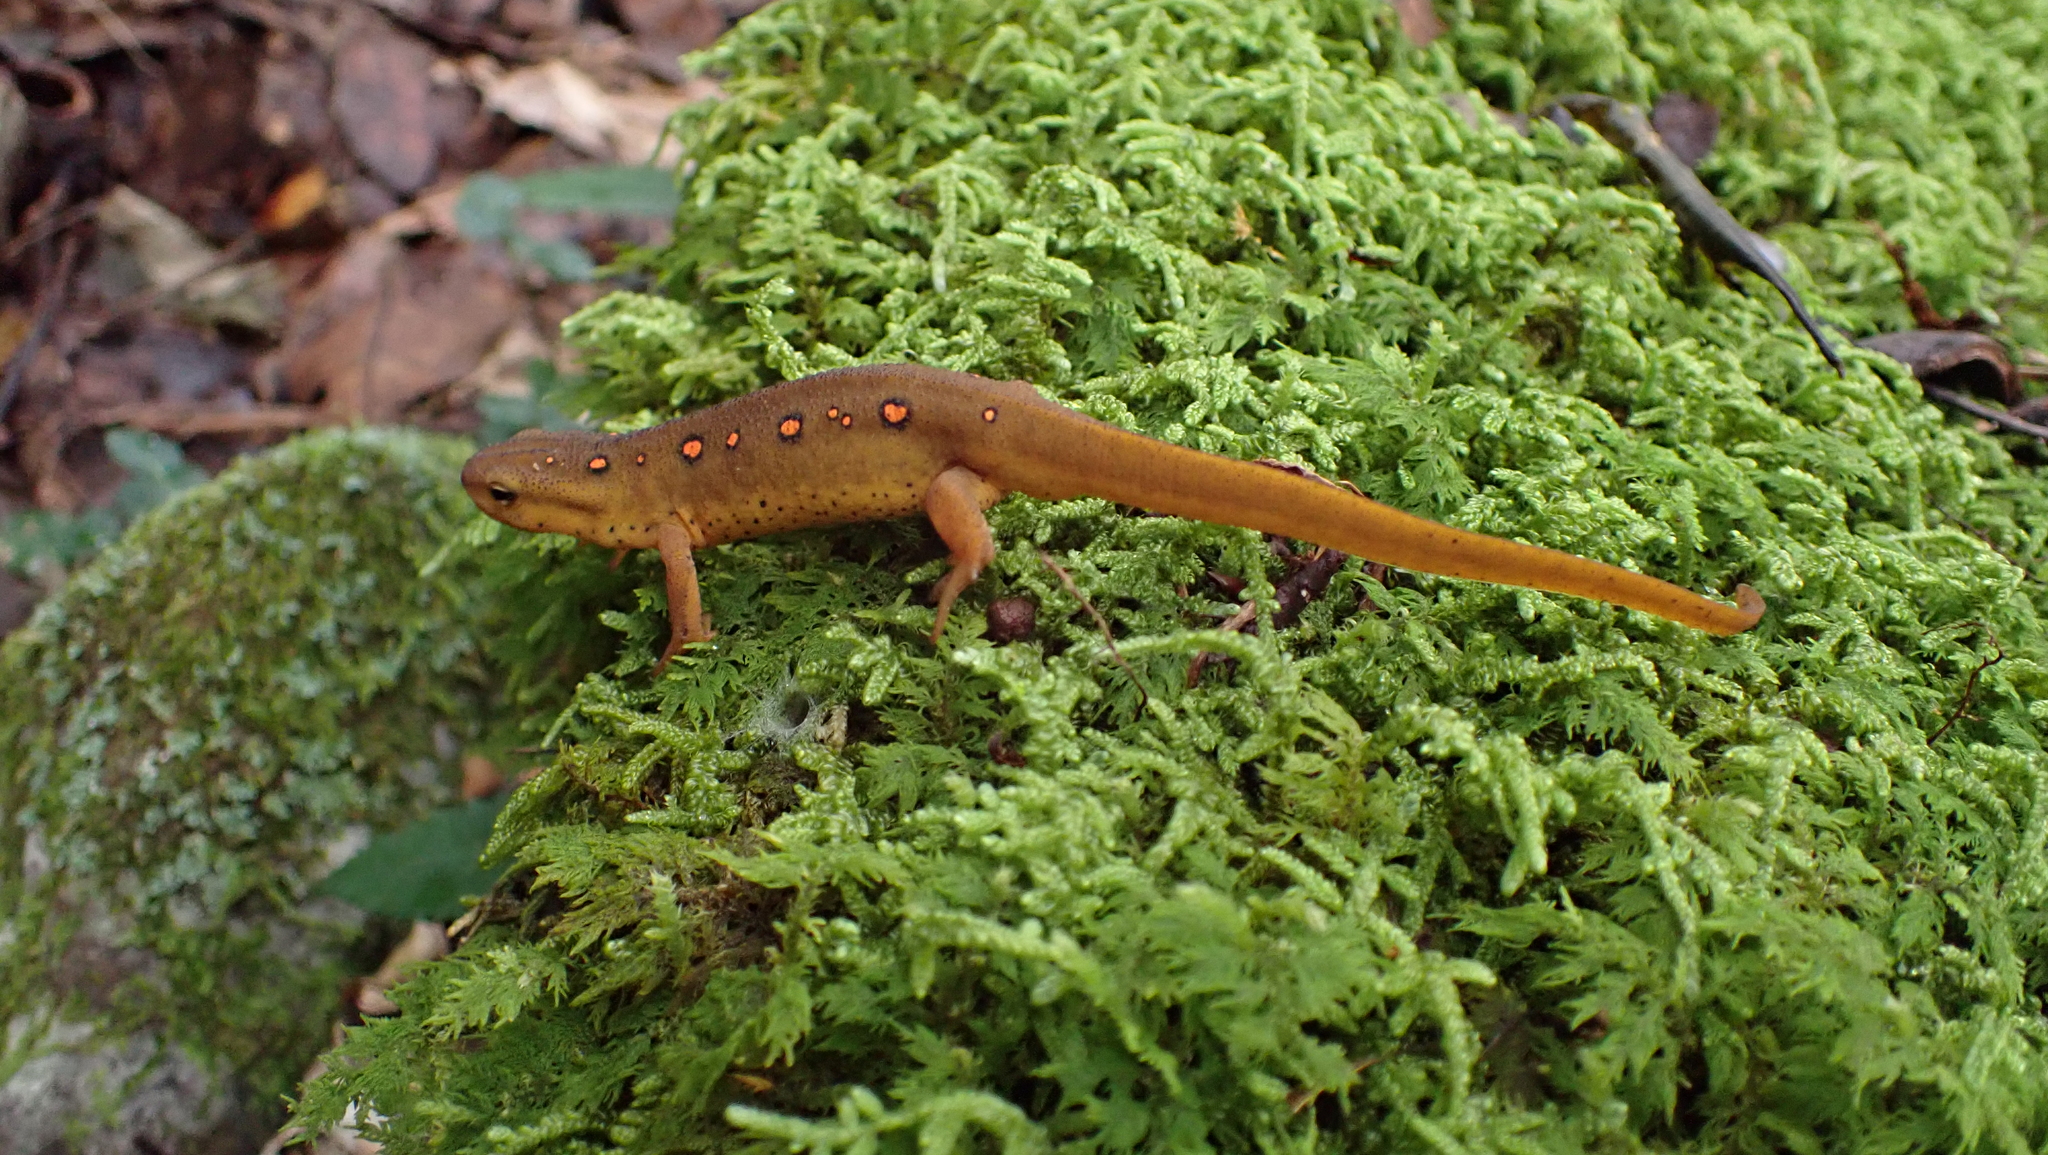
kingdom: Animalia
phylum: Chordata
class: Amphibia
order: Caudata
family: Salamandridae
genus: Notophthalmus
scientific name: Notophthalmus viridescens
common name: Eastern newt
